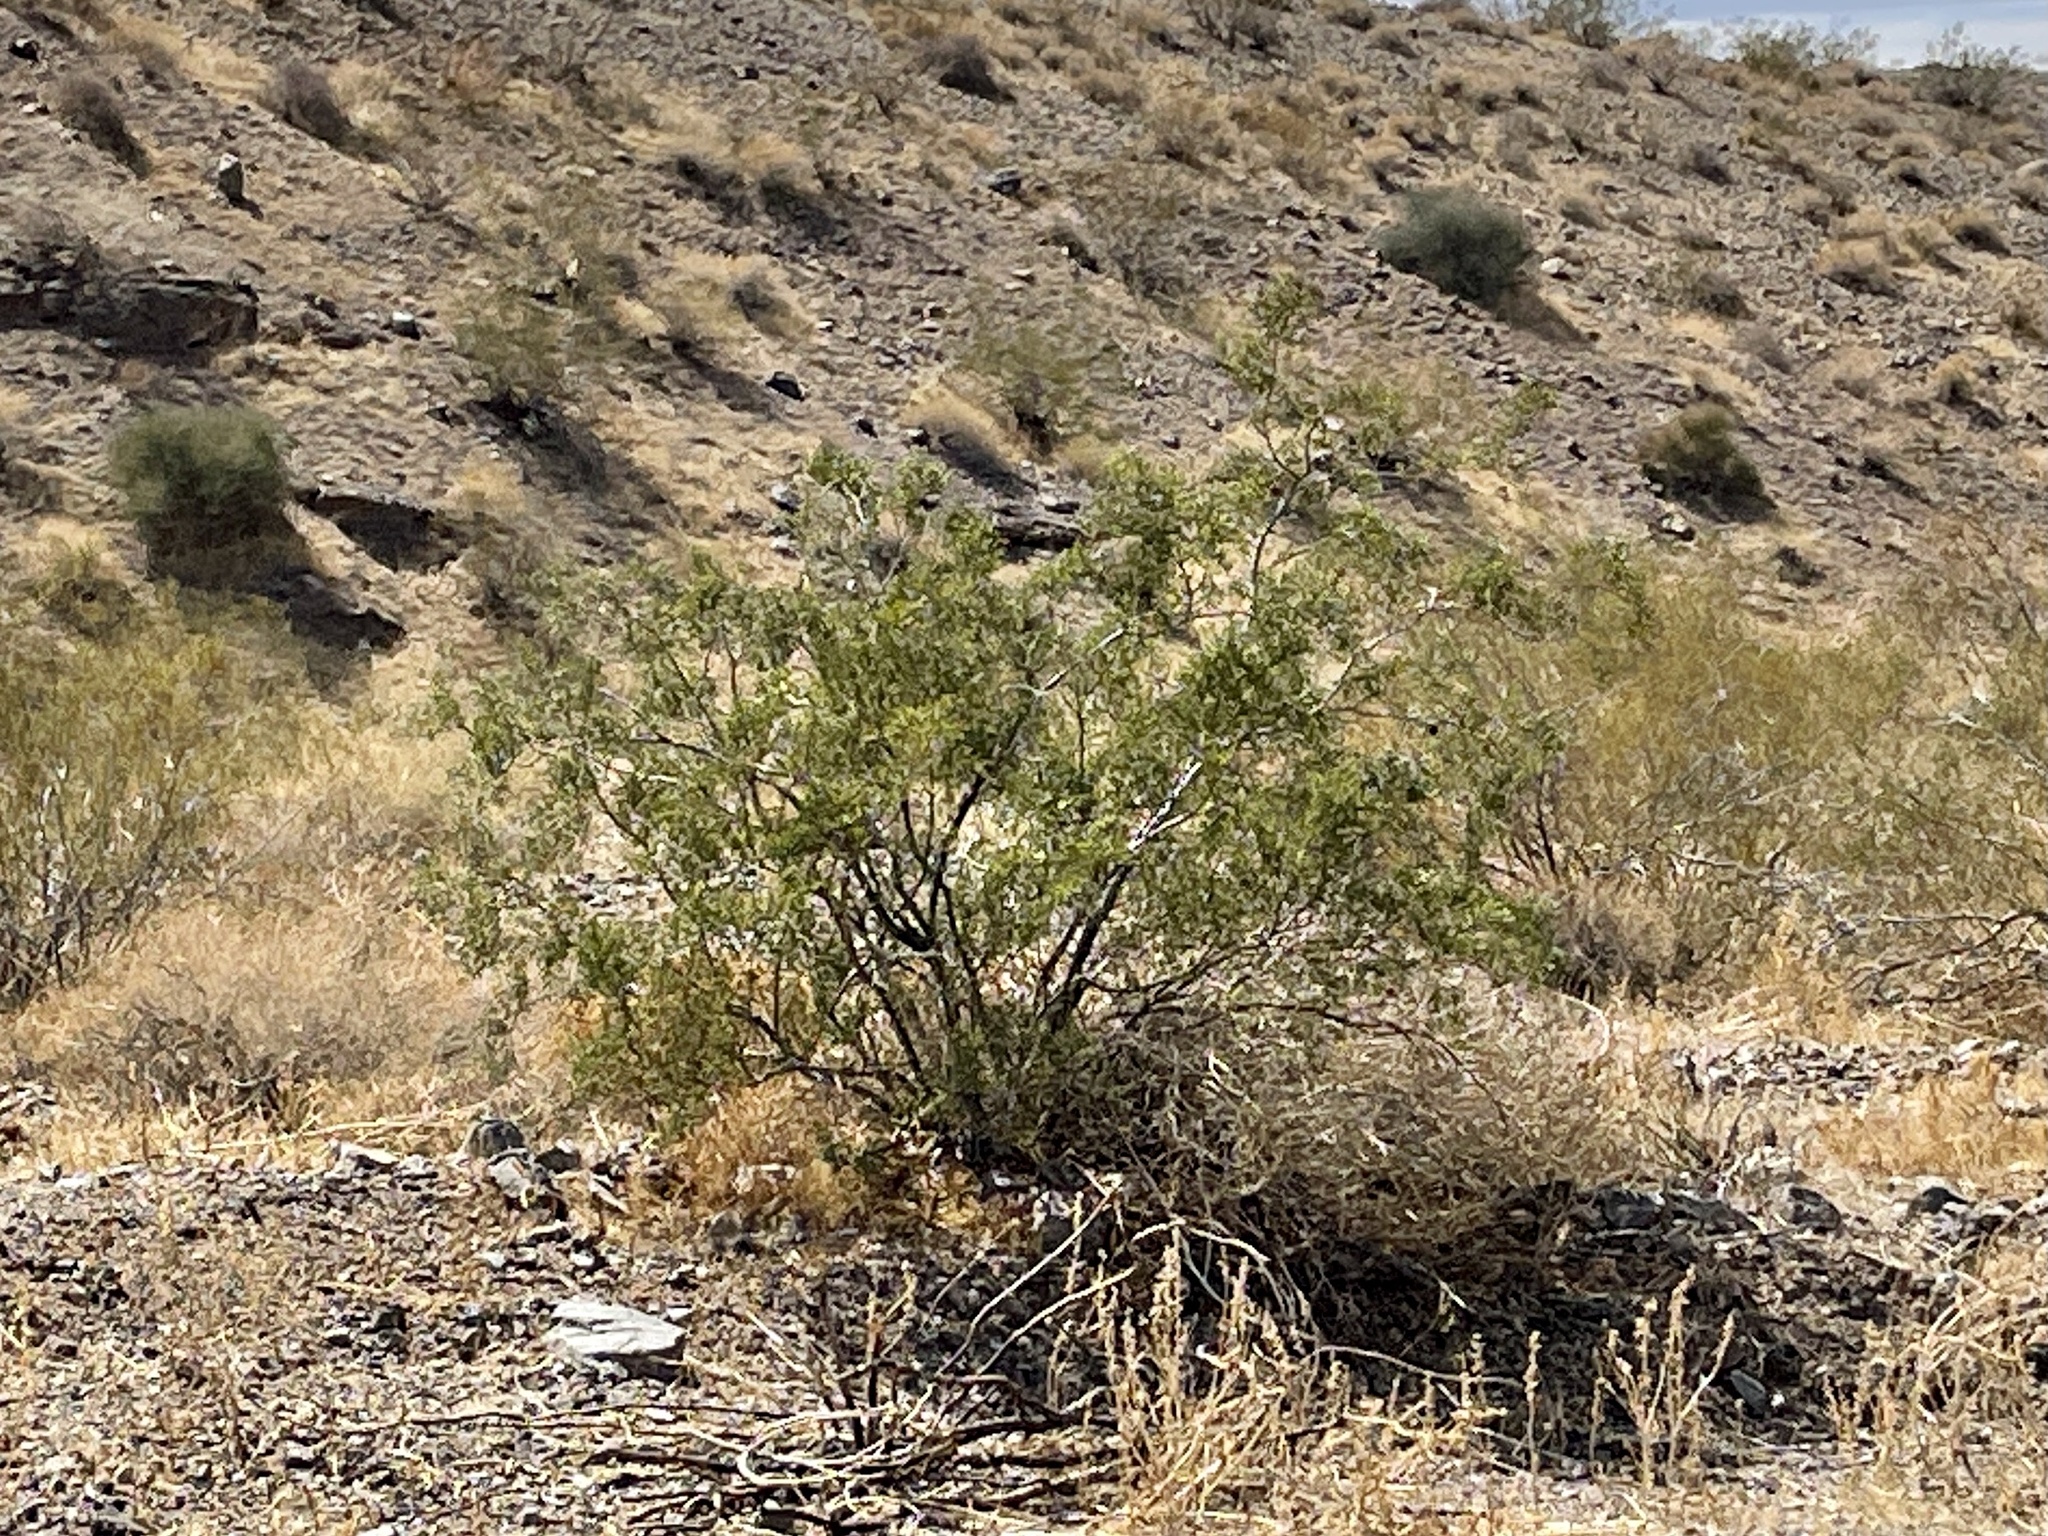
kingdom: Plantae
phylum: Tracheophyta
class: Magnoliopsida
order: Zygophyllales
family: Zygophyllaceae
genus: Larrea
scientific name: Larrea tridentata
